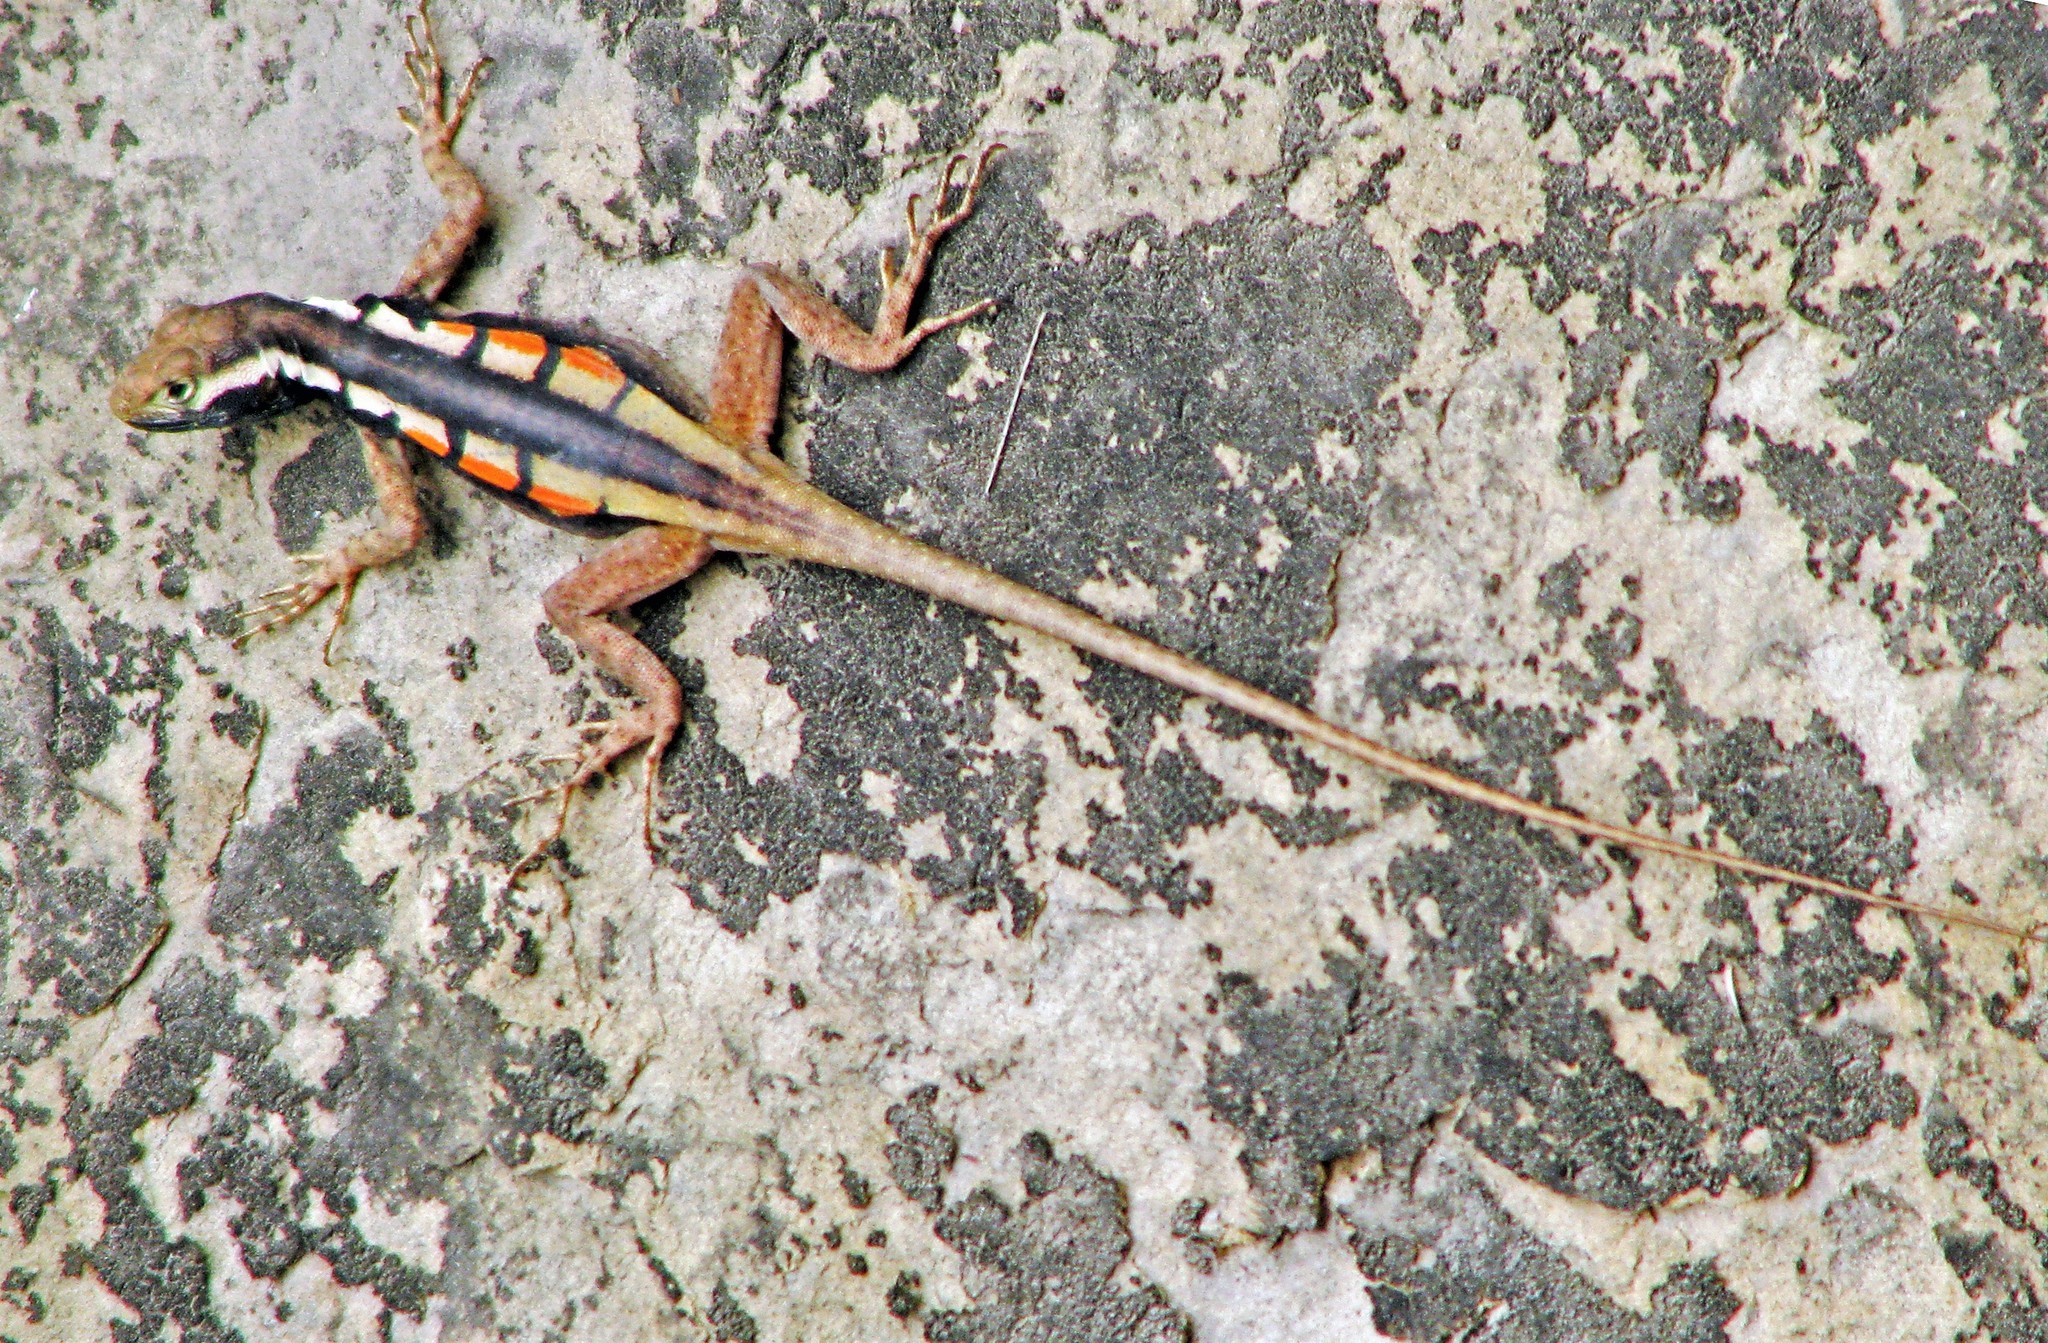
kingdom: Animalia
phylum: Chordata
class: Squamata
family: Tropiduridae
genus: Tropidurus
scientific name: Tropidurus melanopleurus
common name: Black lava lizard
